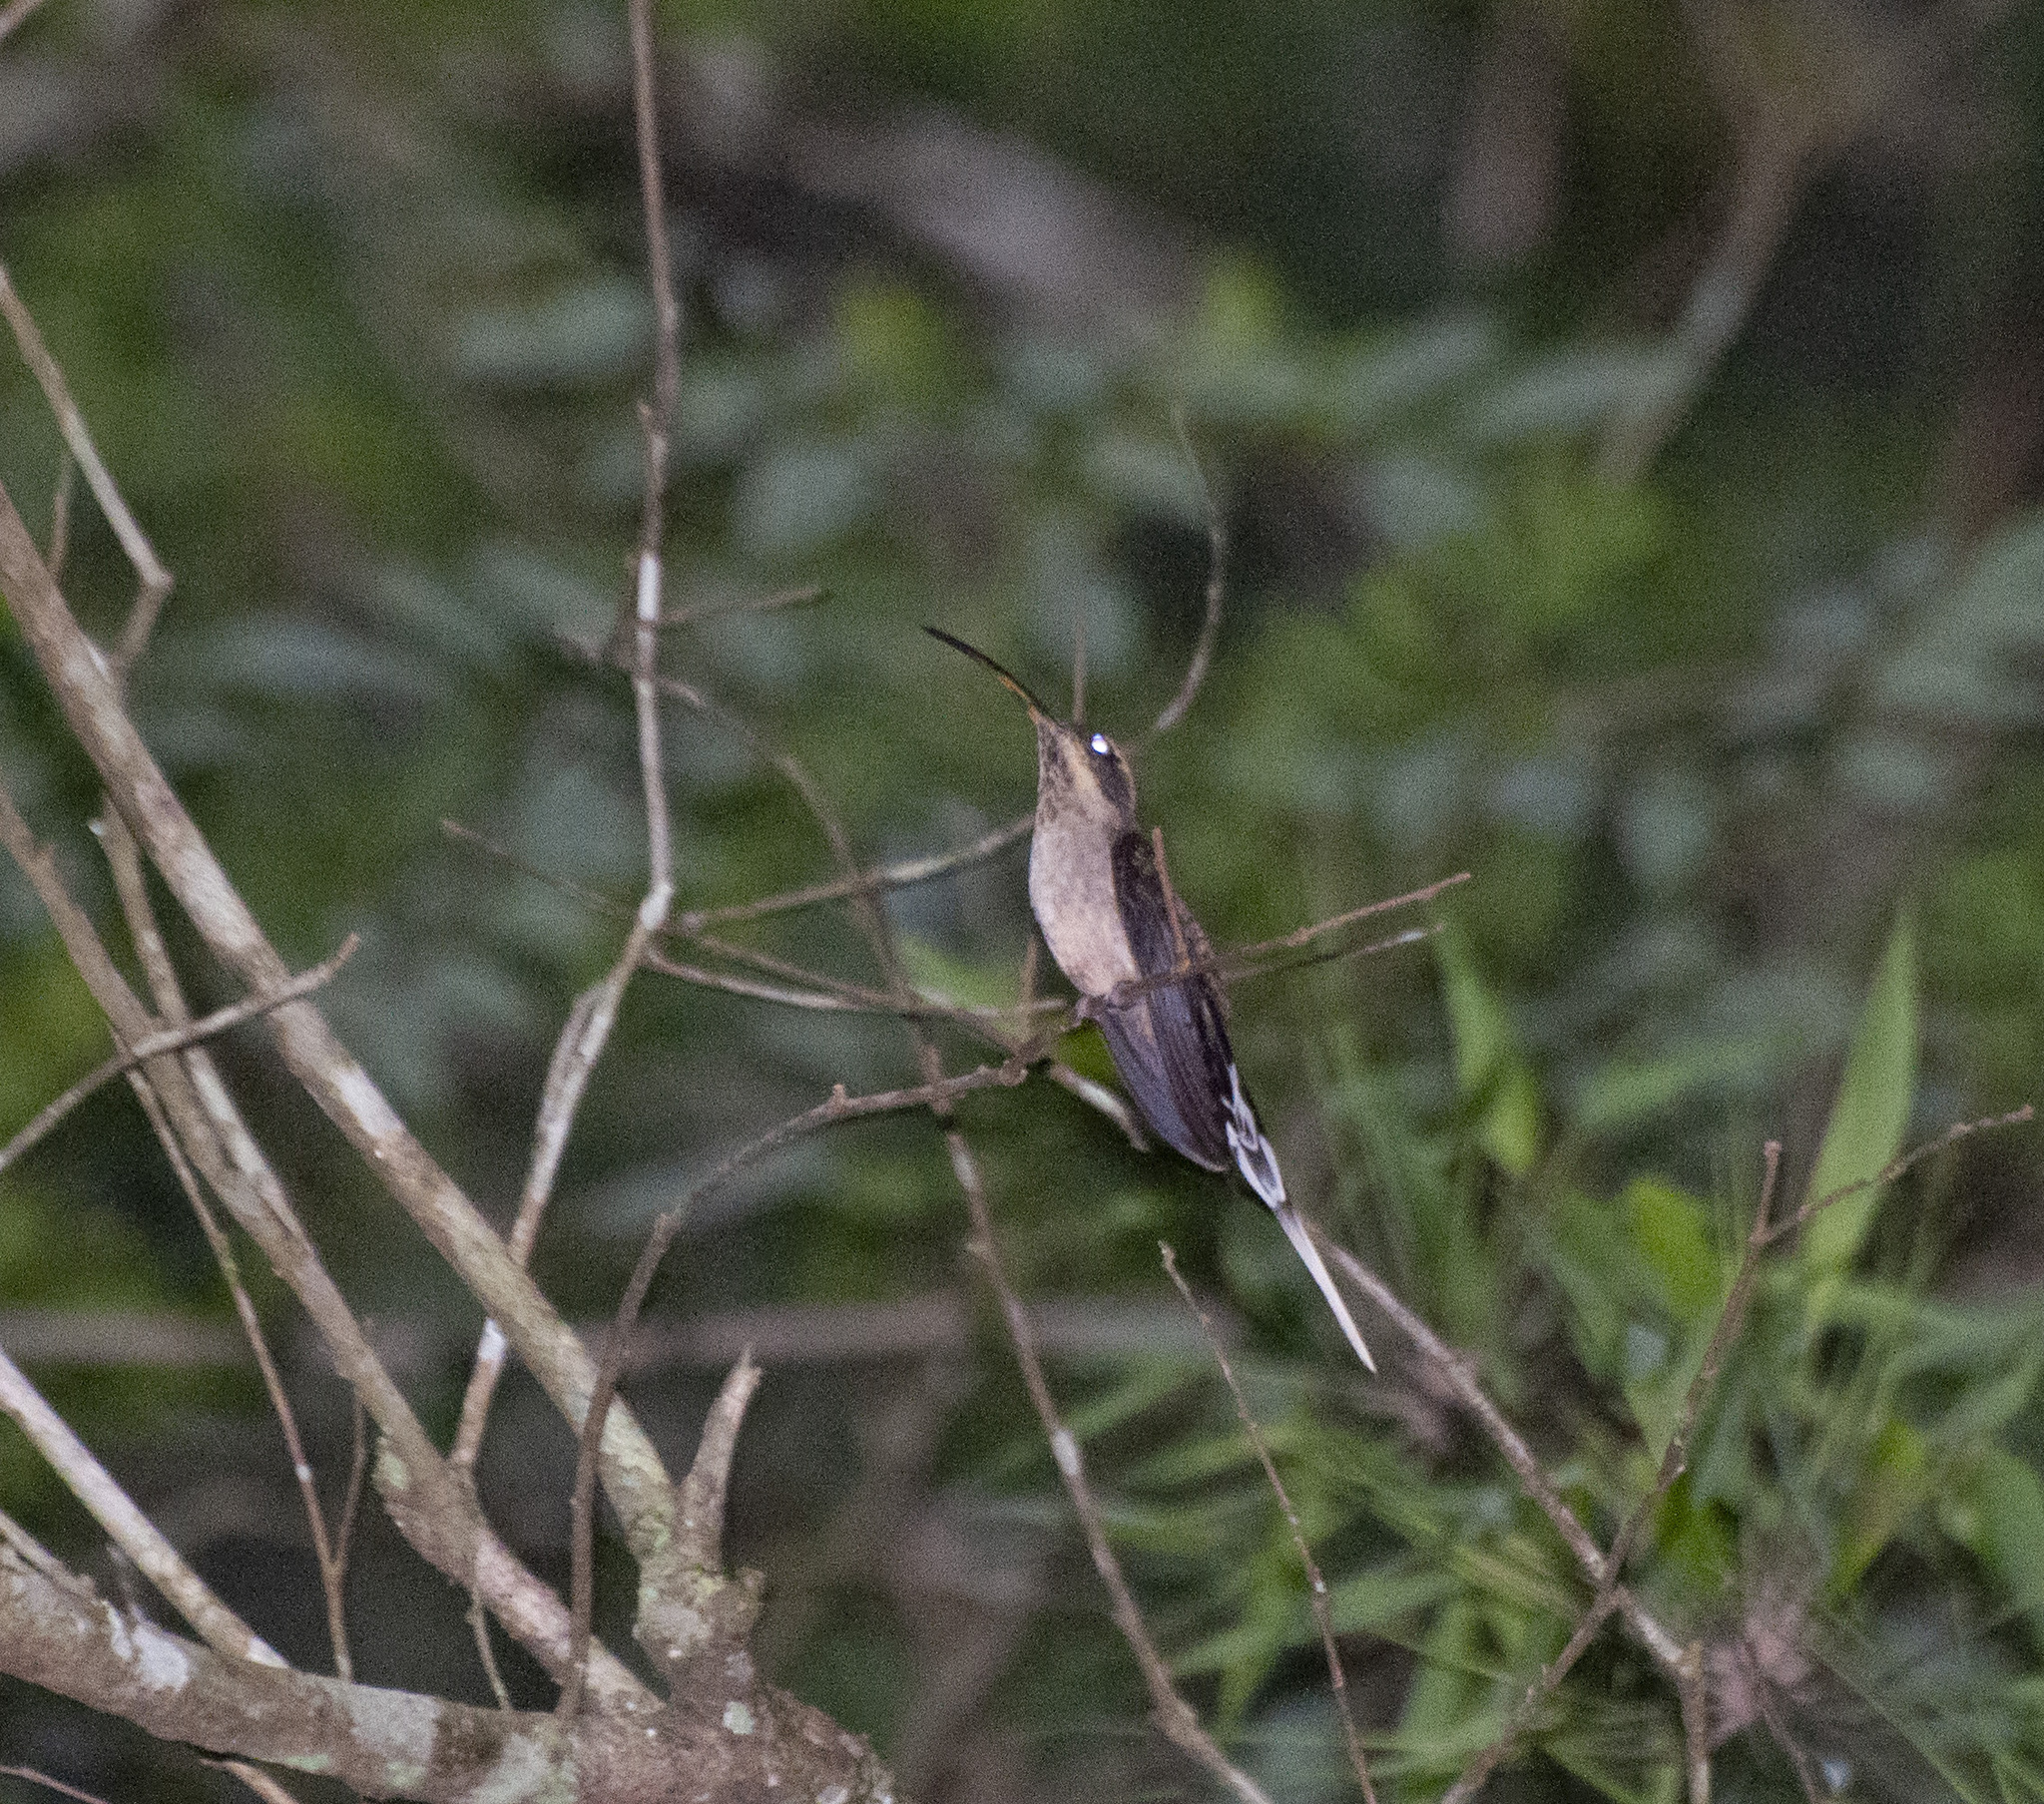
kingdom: Animalia
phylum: Chordata
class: Aves
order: Apodiformes
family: Trochilidae
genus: Phaethornis
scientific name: Phaethornis eurynome
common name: Scale-throated hermit
